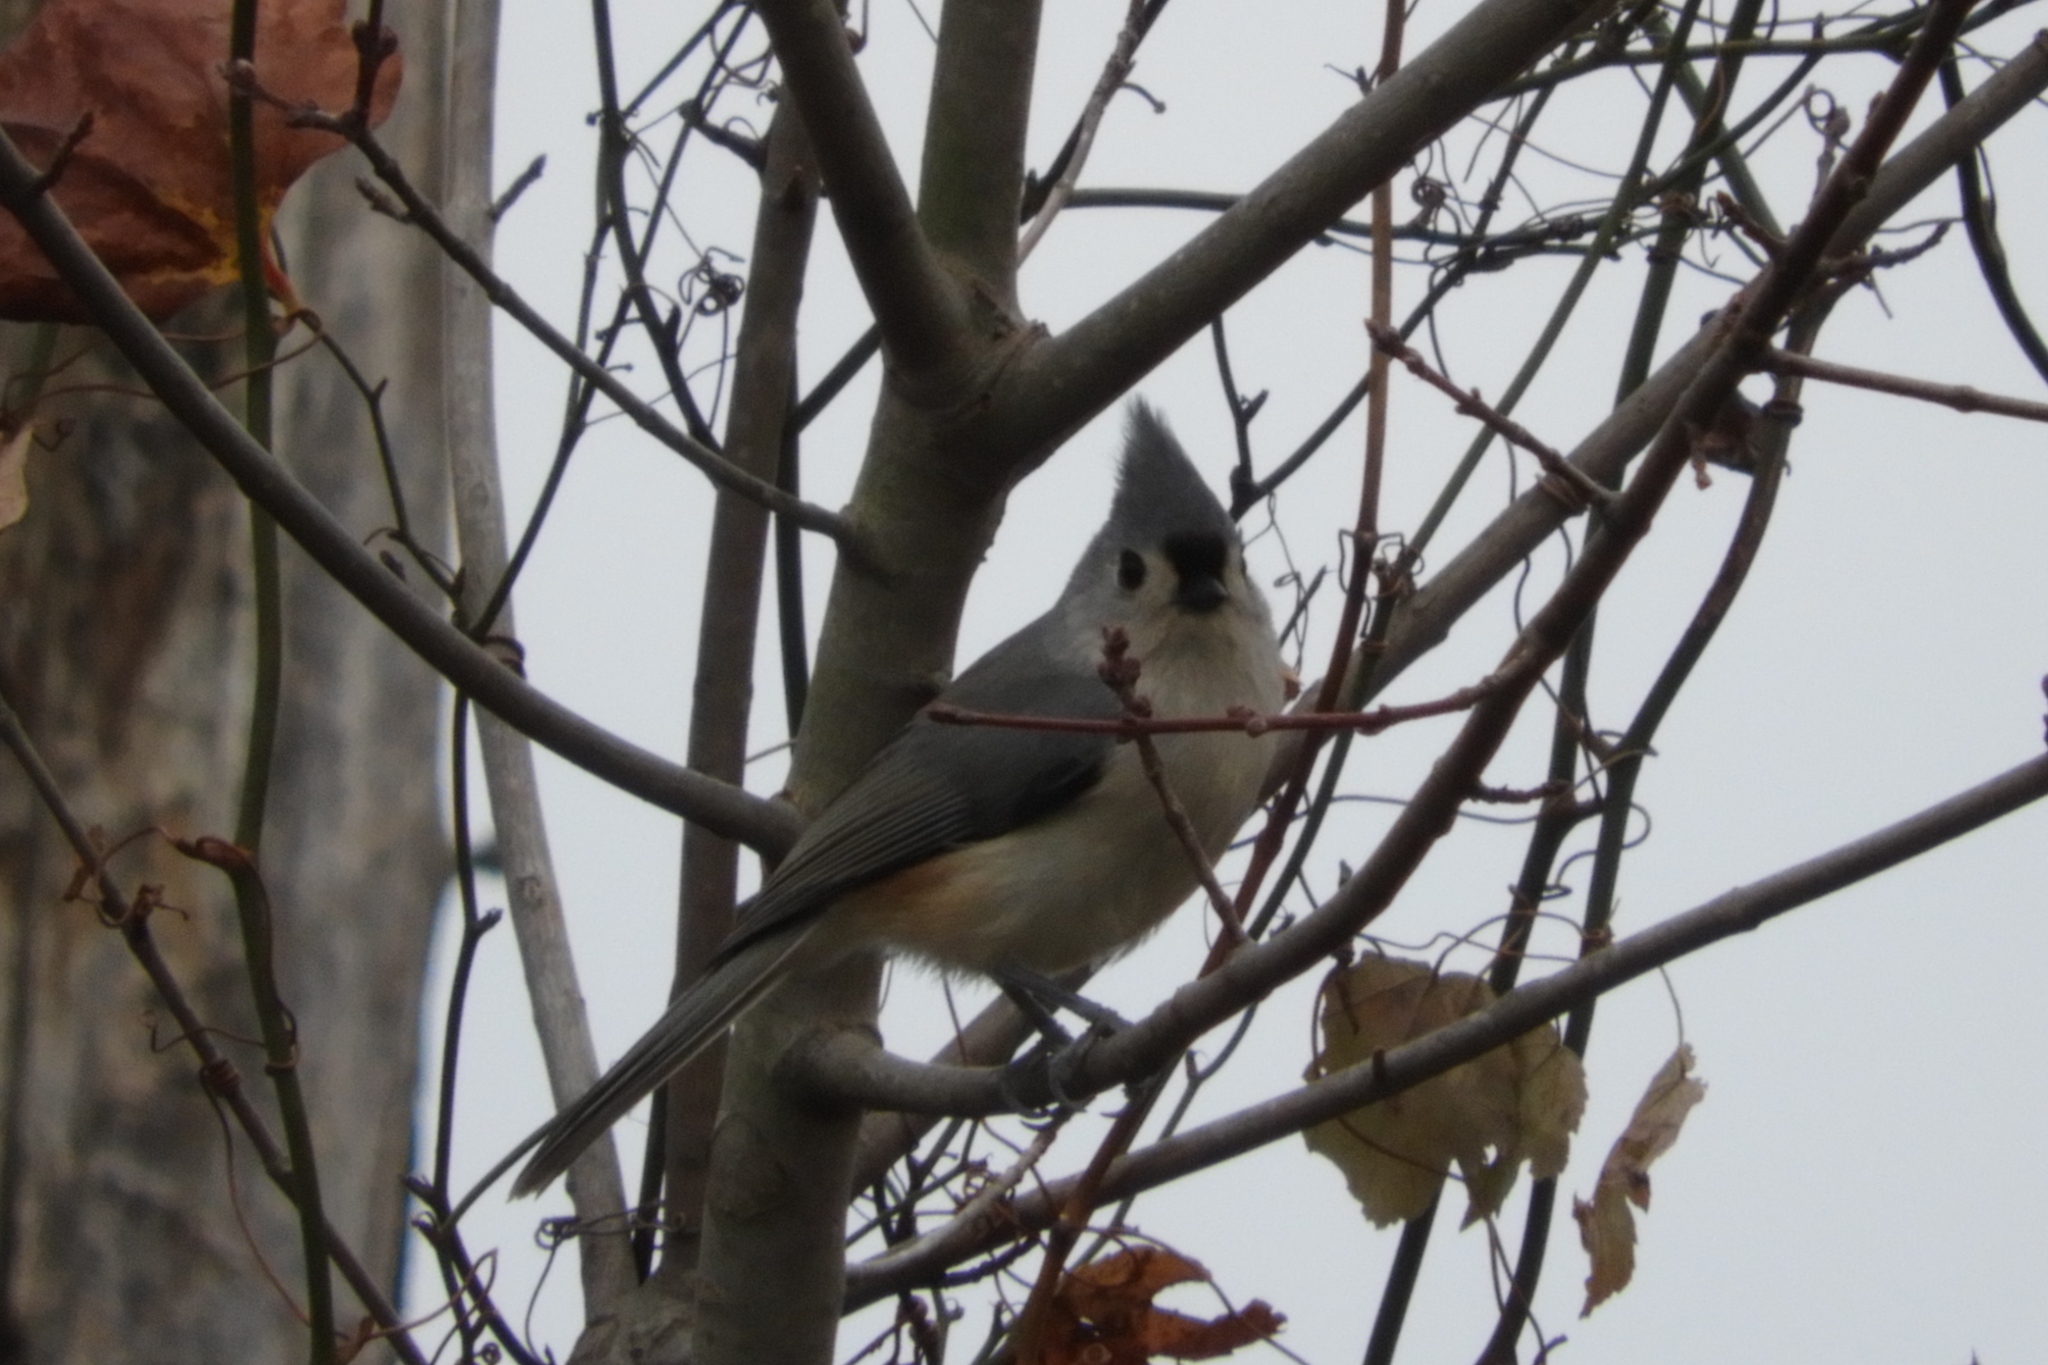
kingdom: Animalia
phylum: Chordata
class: Aves
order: Passeriformes
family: Paridae
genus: Baeolophus
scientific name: Baeolophus bicolor
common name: Tufted titmouse
